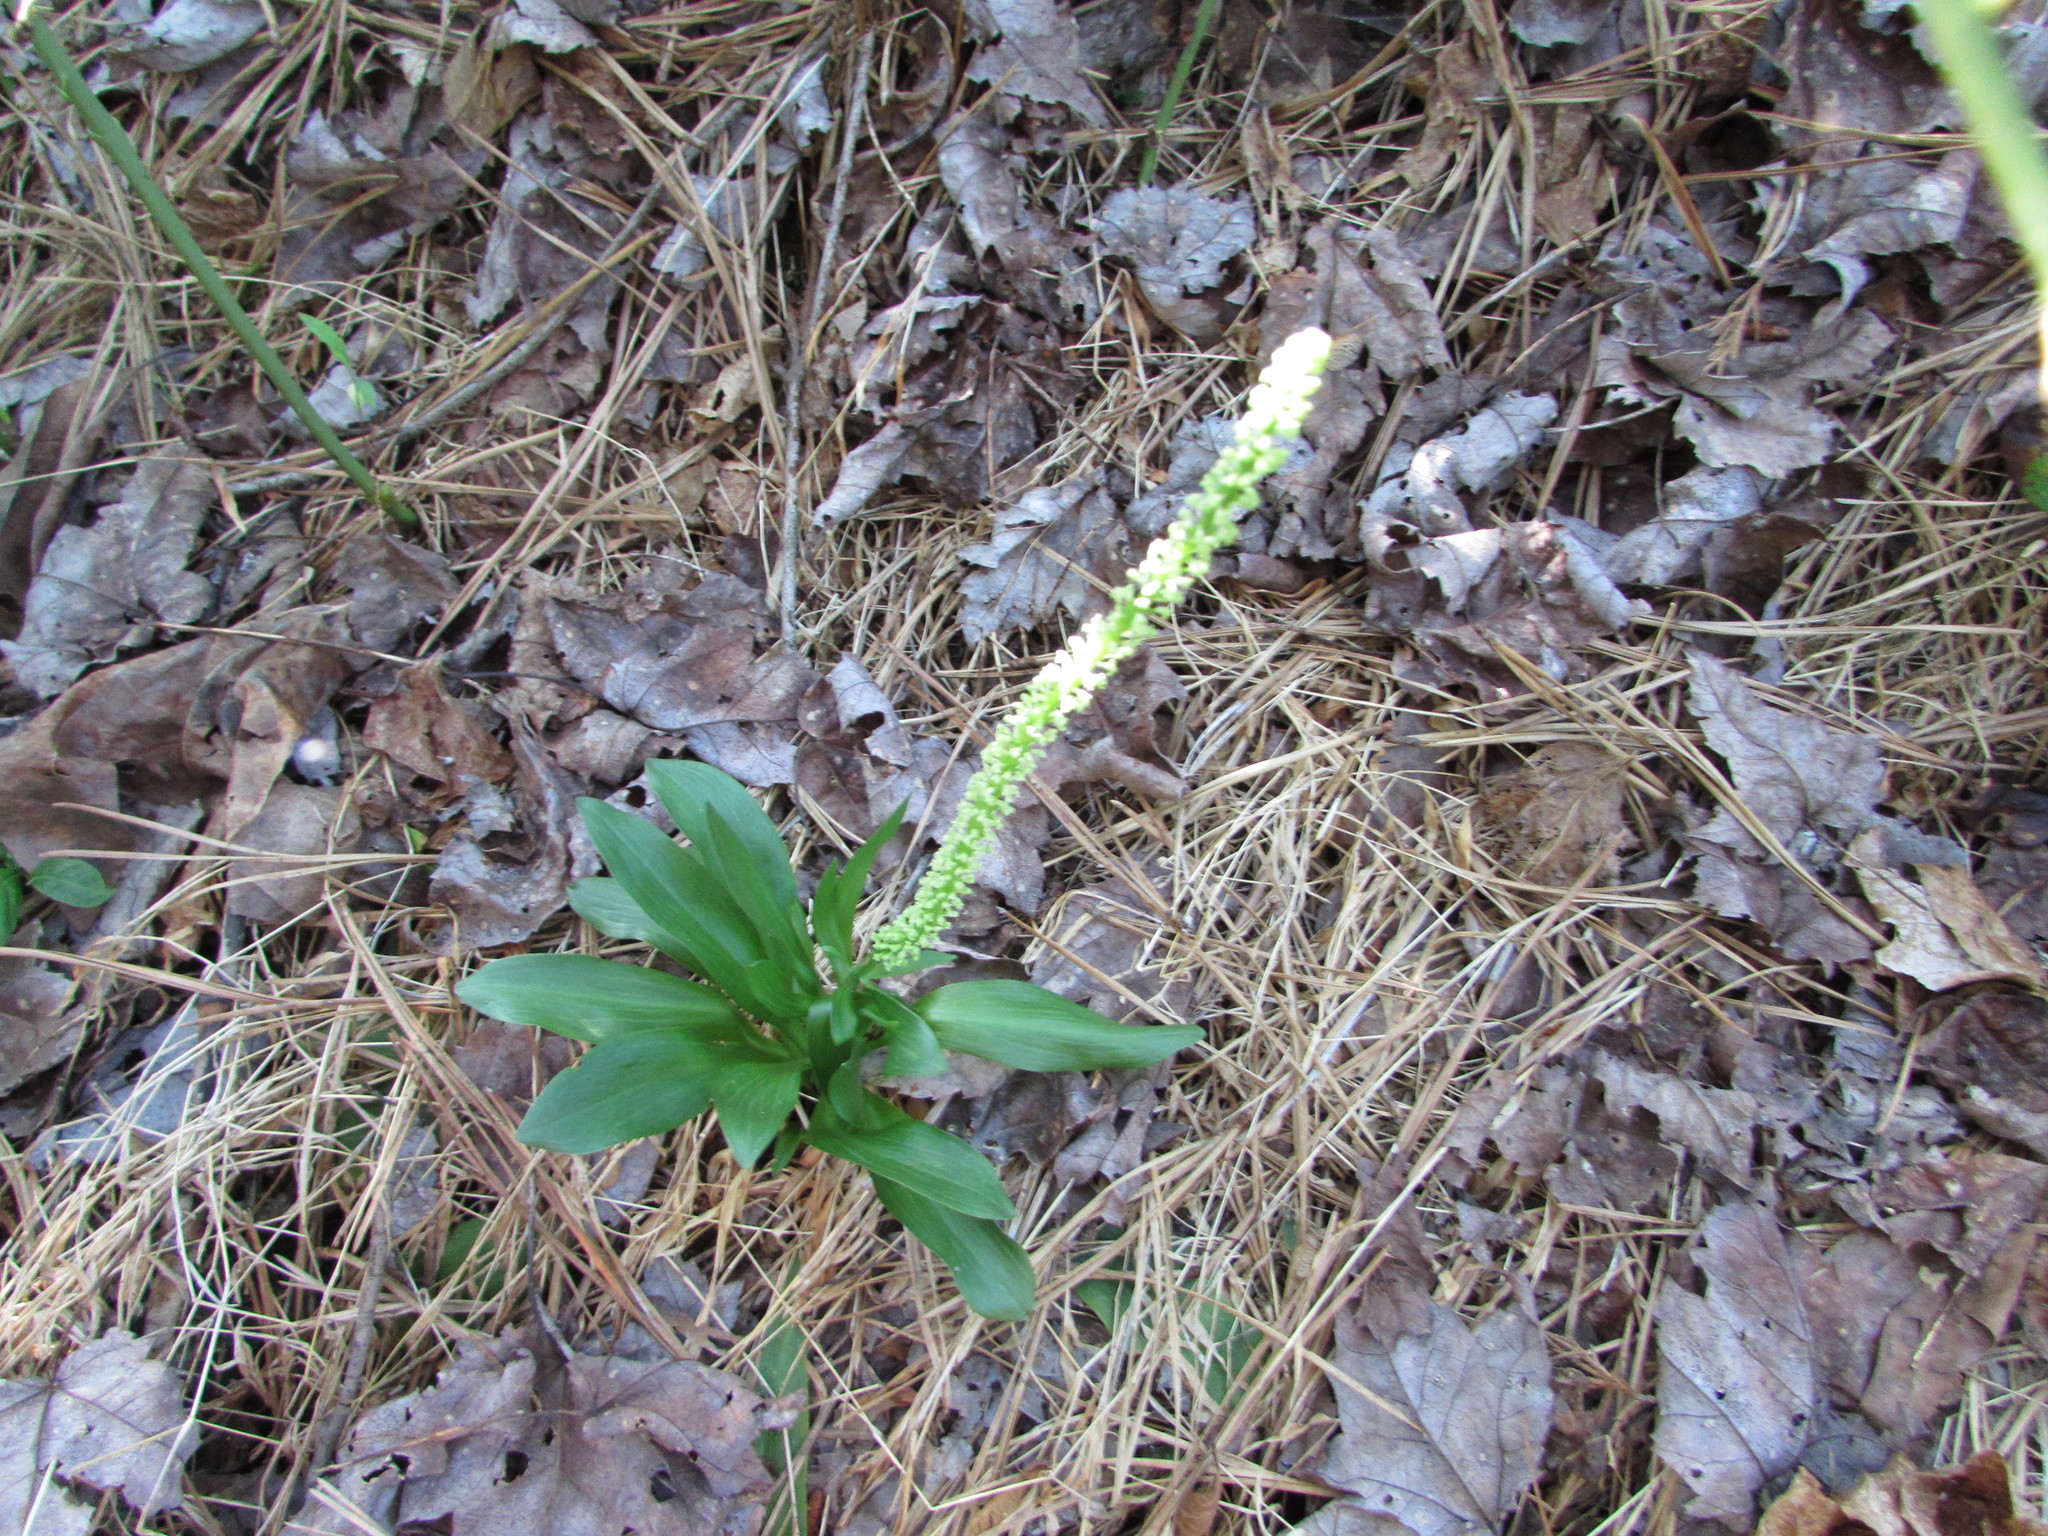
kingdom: Plantae
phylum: Tracheophyta
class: Liliopsida
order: Liliales
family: Melanthiaceae
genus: Chamaelirium
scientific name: Chamaelirium luteum
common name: Fairy-wand
